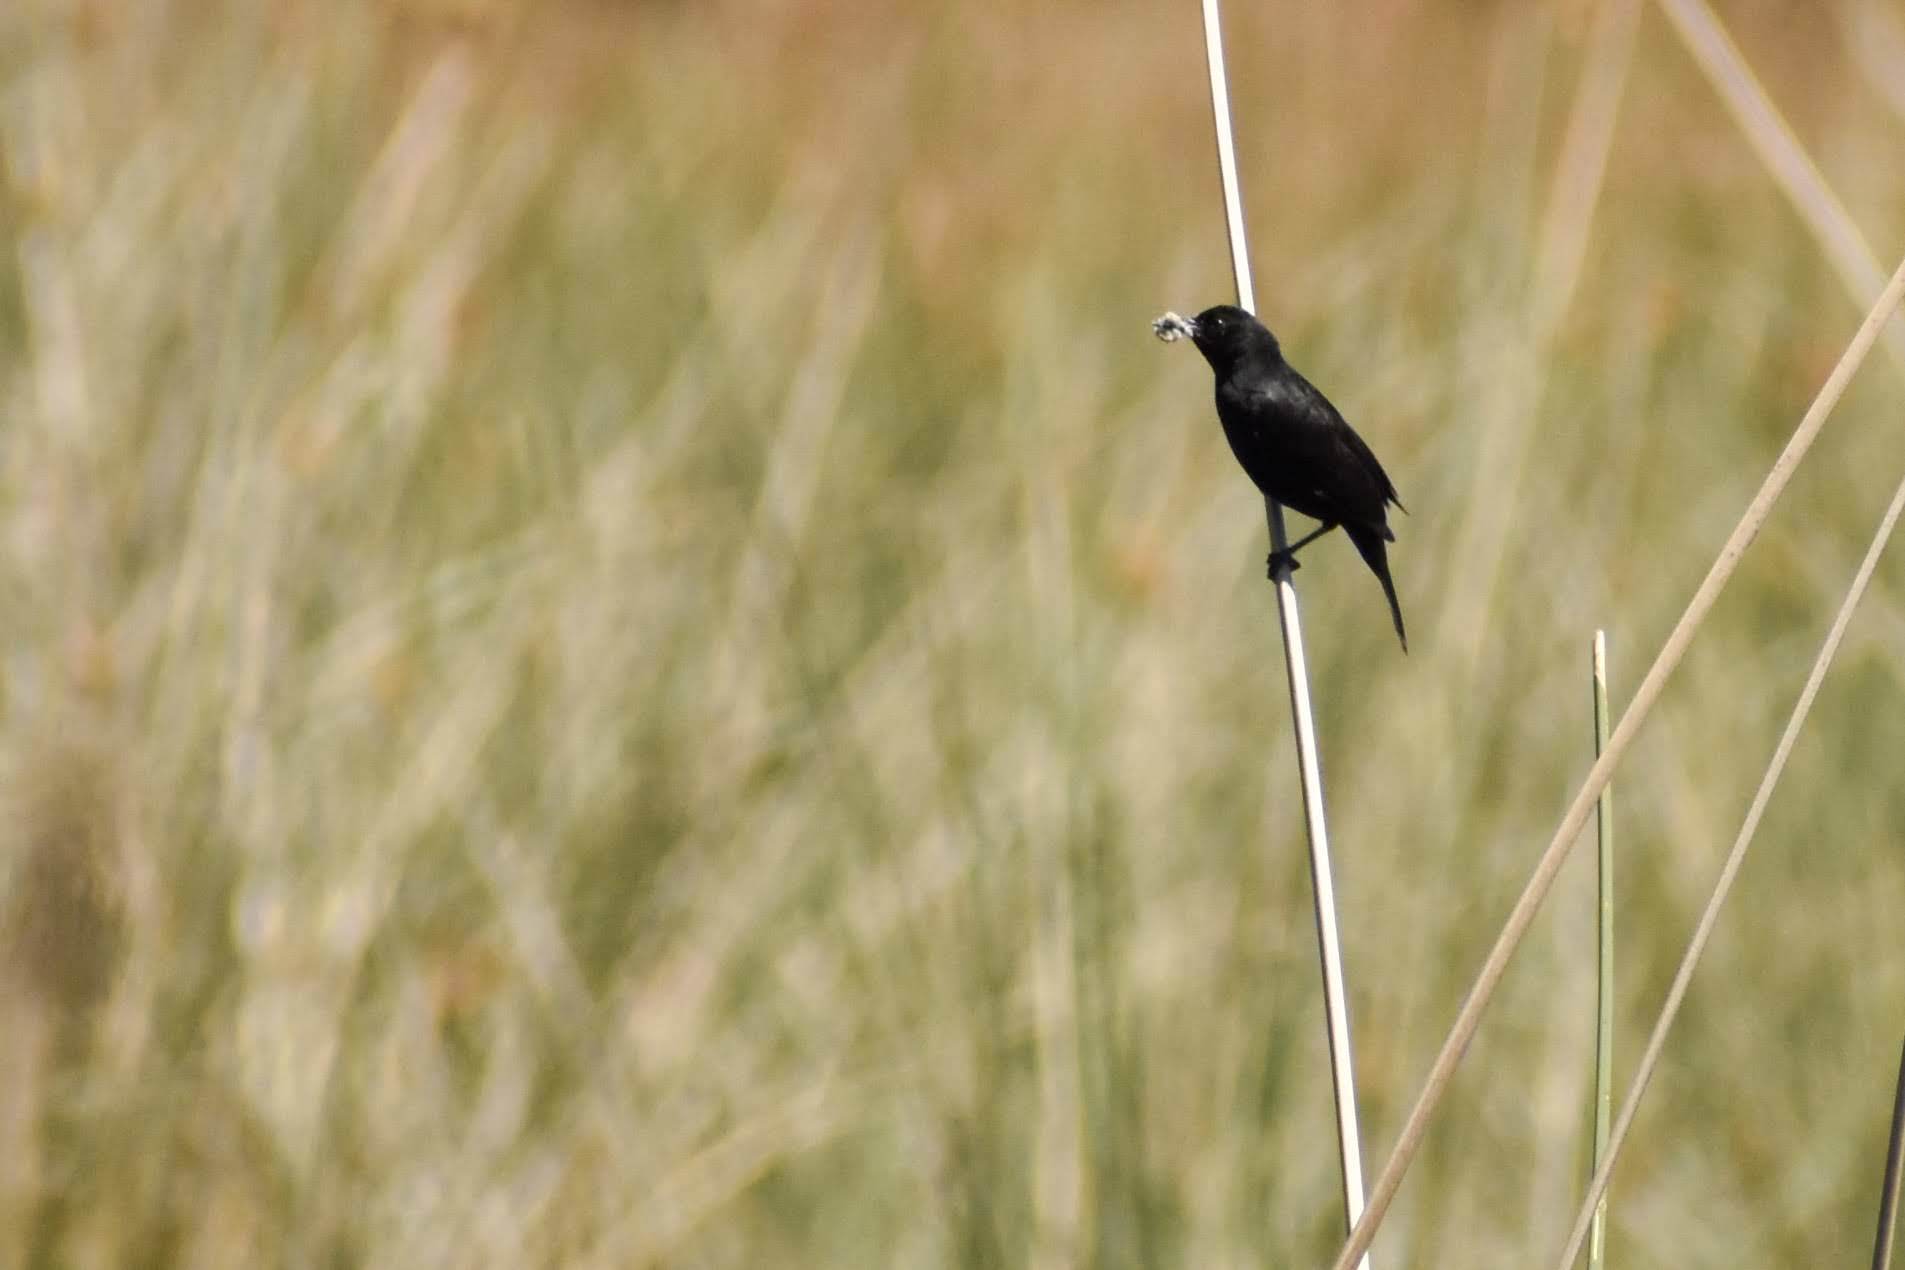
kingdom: Animalia
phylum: Chordata
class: Aves
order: Passeriformes
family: Icteridae
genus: Agelasticus
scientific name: Agelasticus cyanopus
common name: Unicolored blackbird
